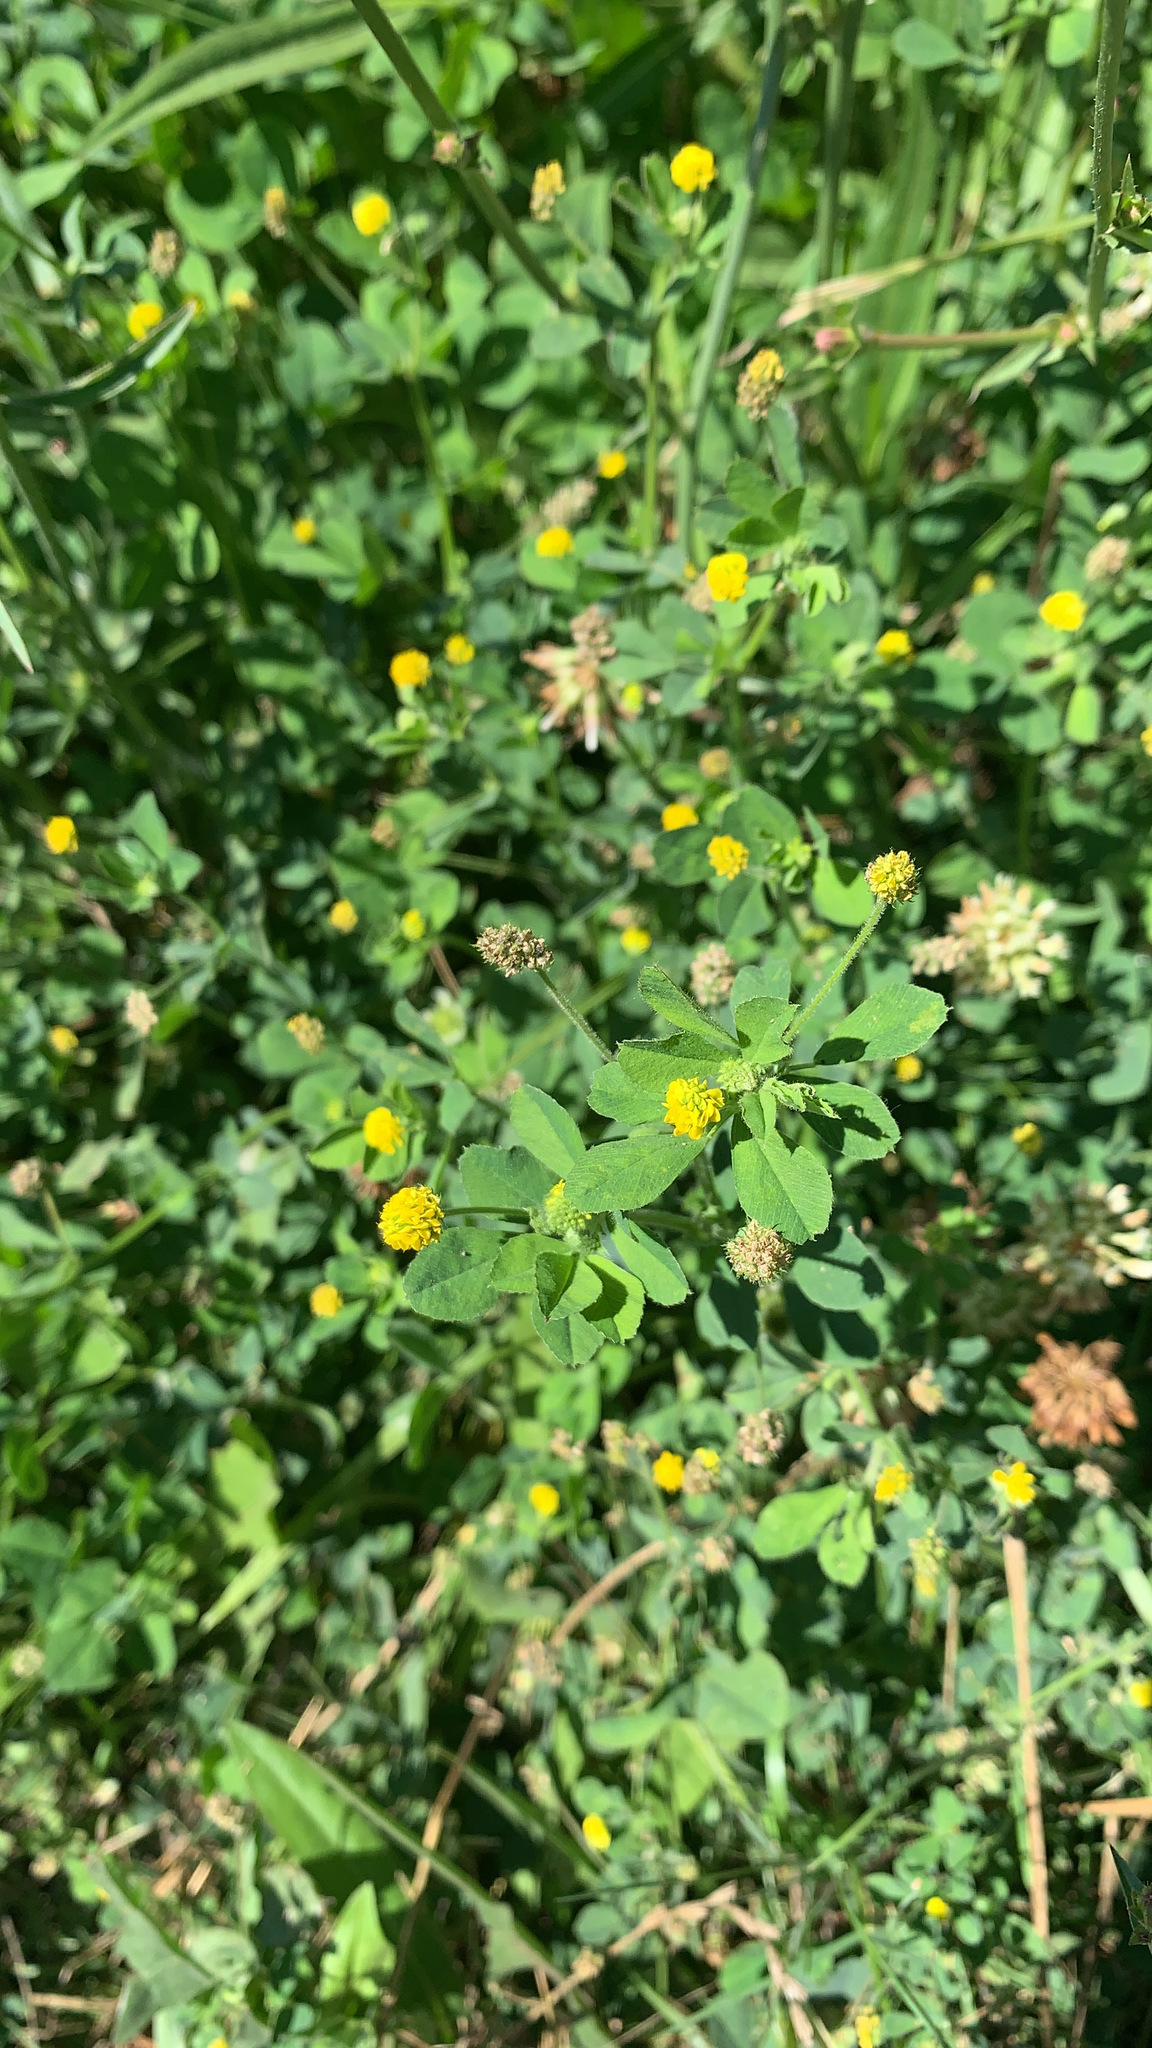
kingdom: Plantae
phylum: Tracheophyta
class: Magnoliopsida
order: Fabales
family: Fabaceae
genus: Medicago
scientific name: Medicago lupulina
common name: Black medick
